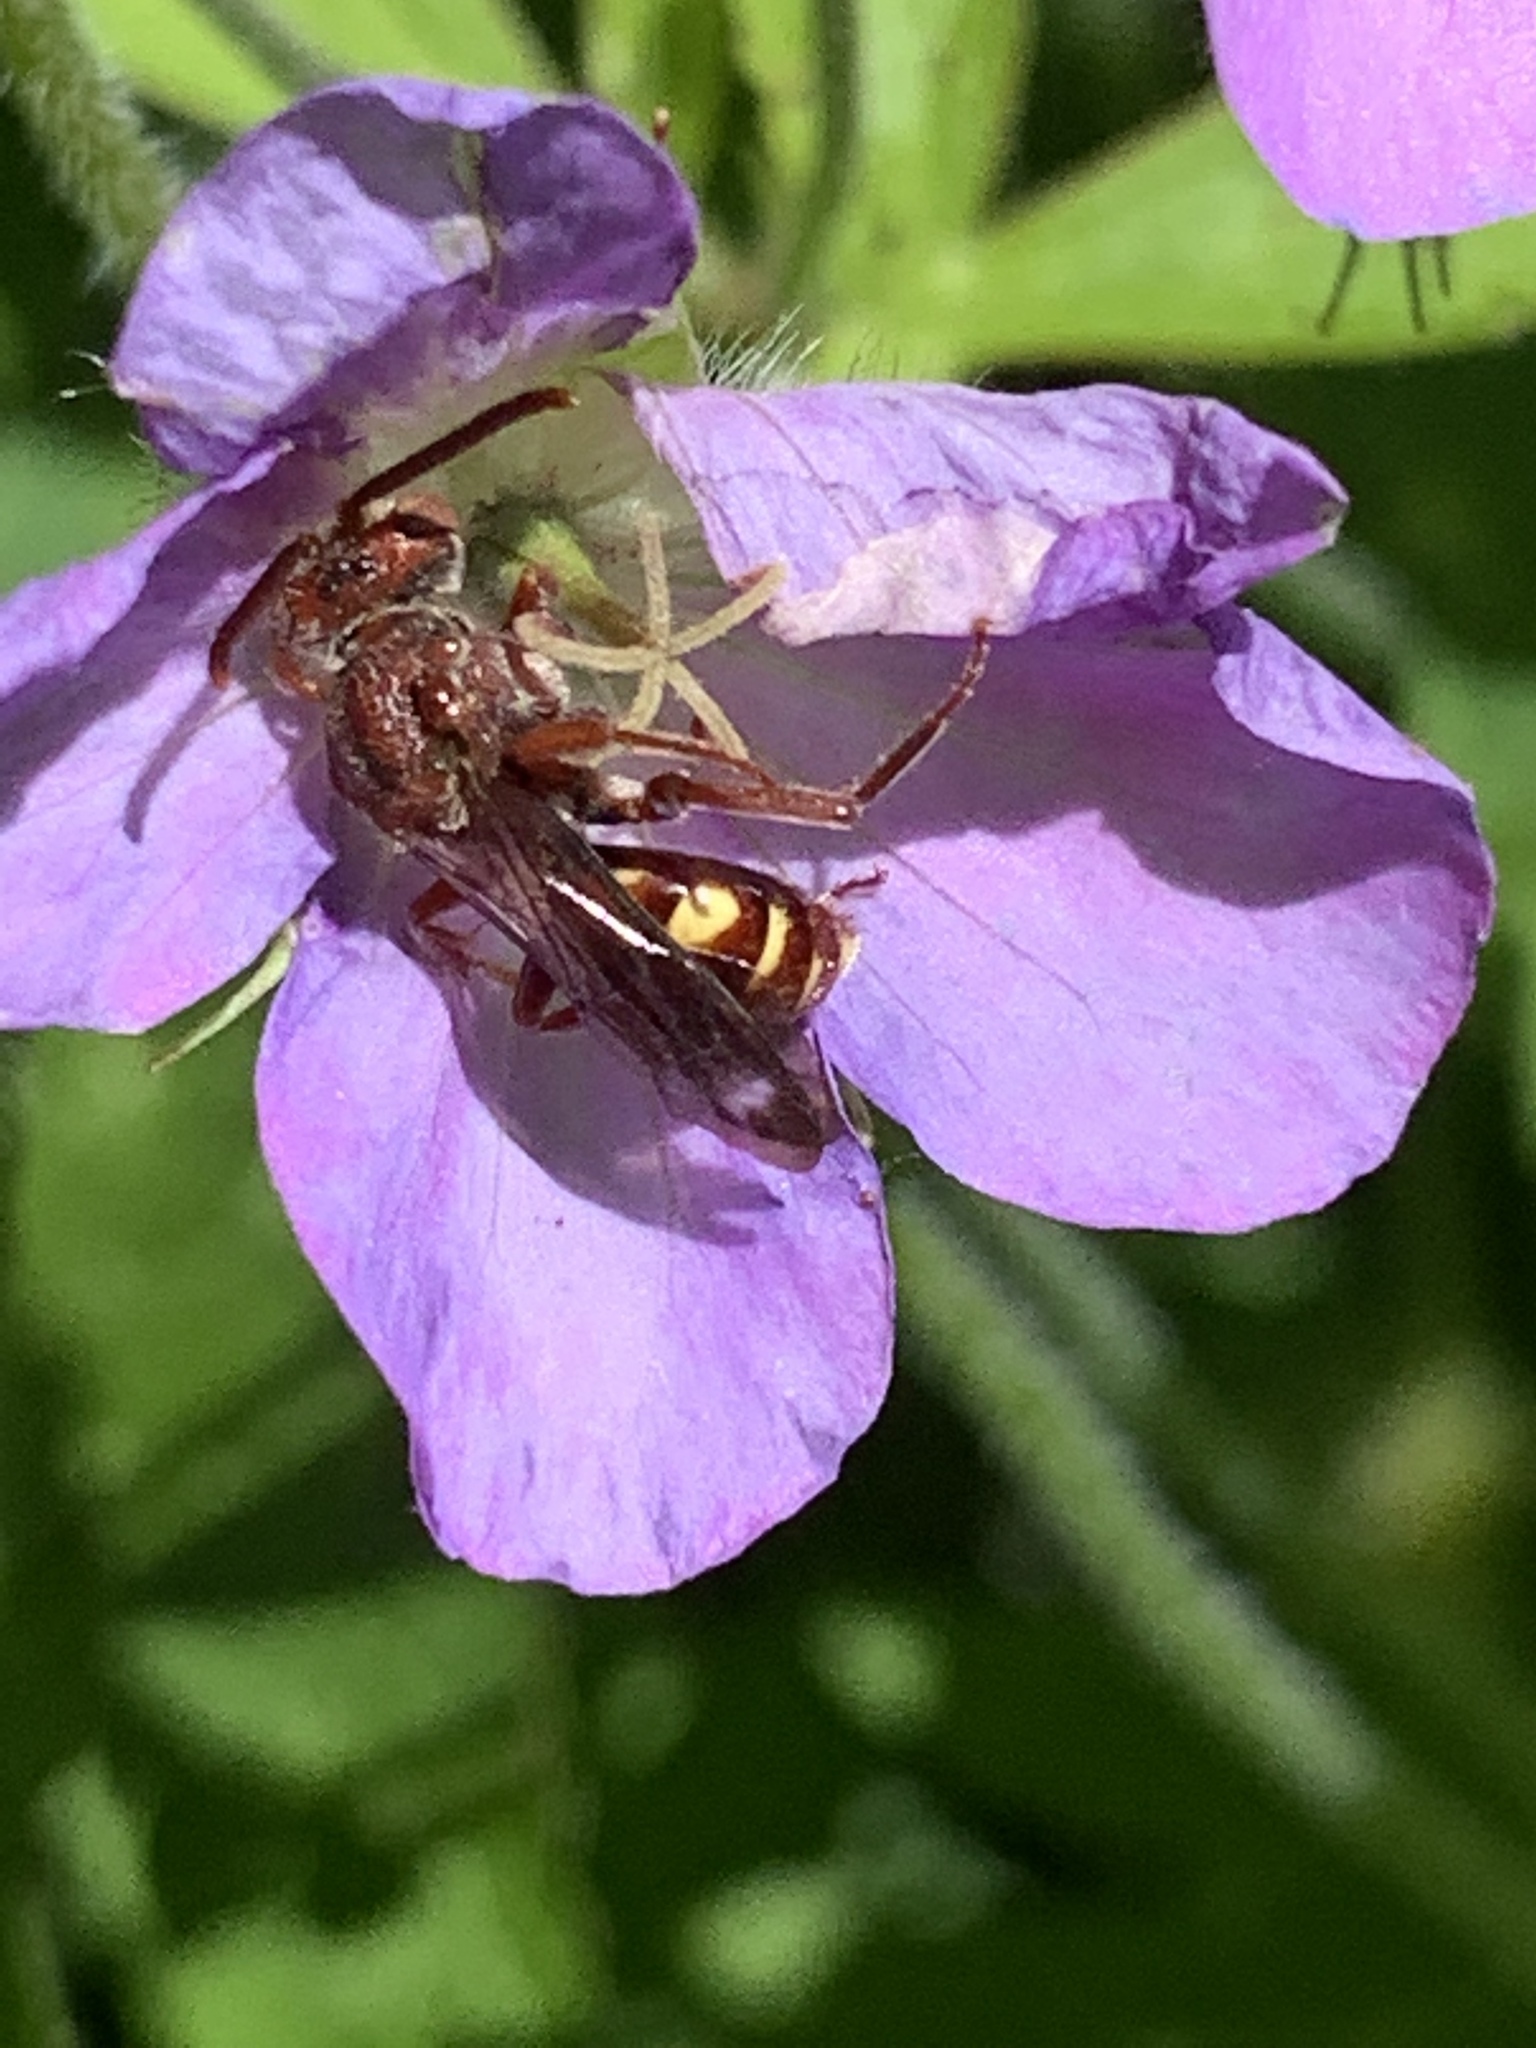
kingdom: Animalia
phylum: Arthropoda
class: Insecta
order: Hymenoptera
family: Apidae
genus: Nomada
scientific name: Nomada
